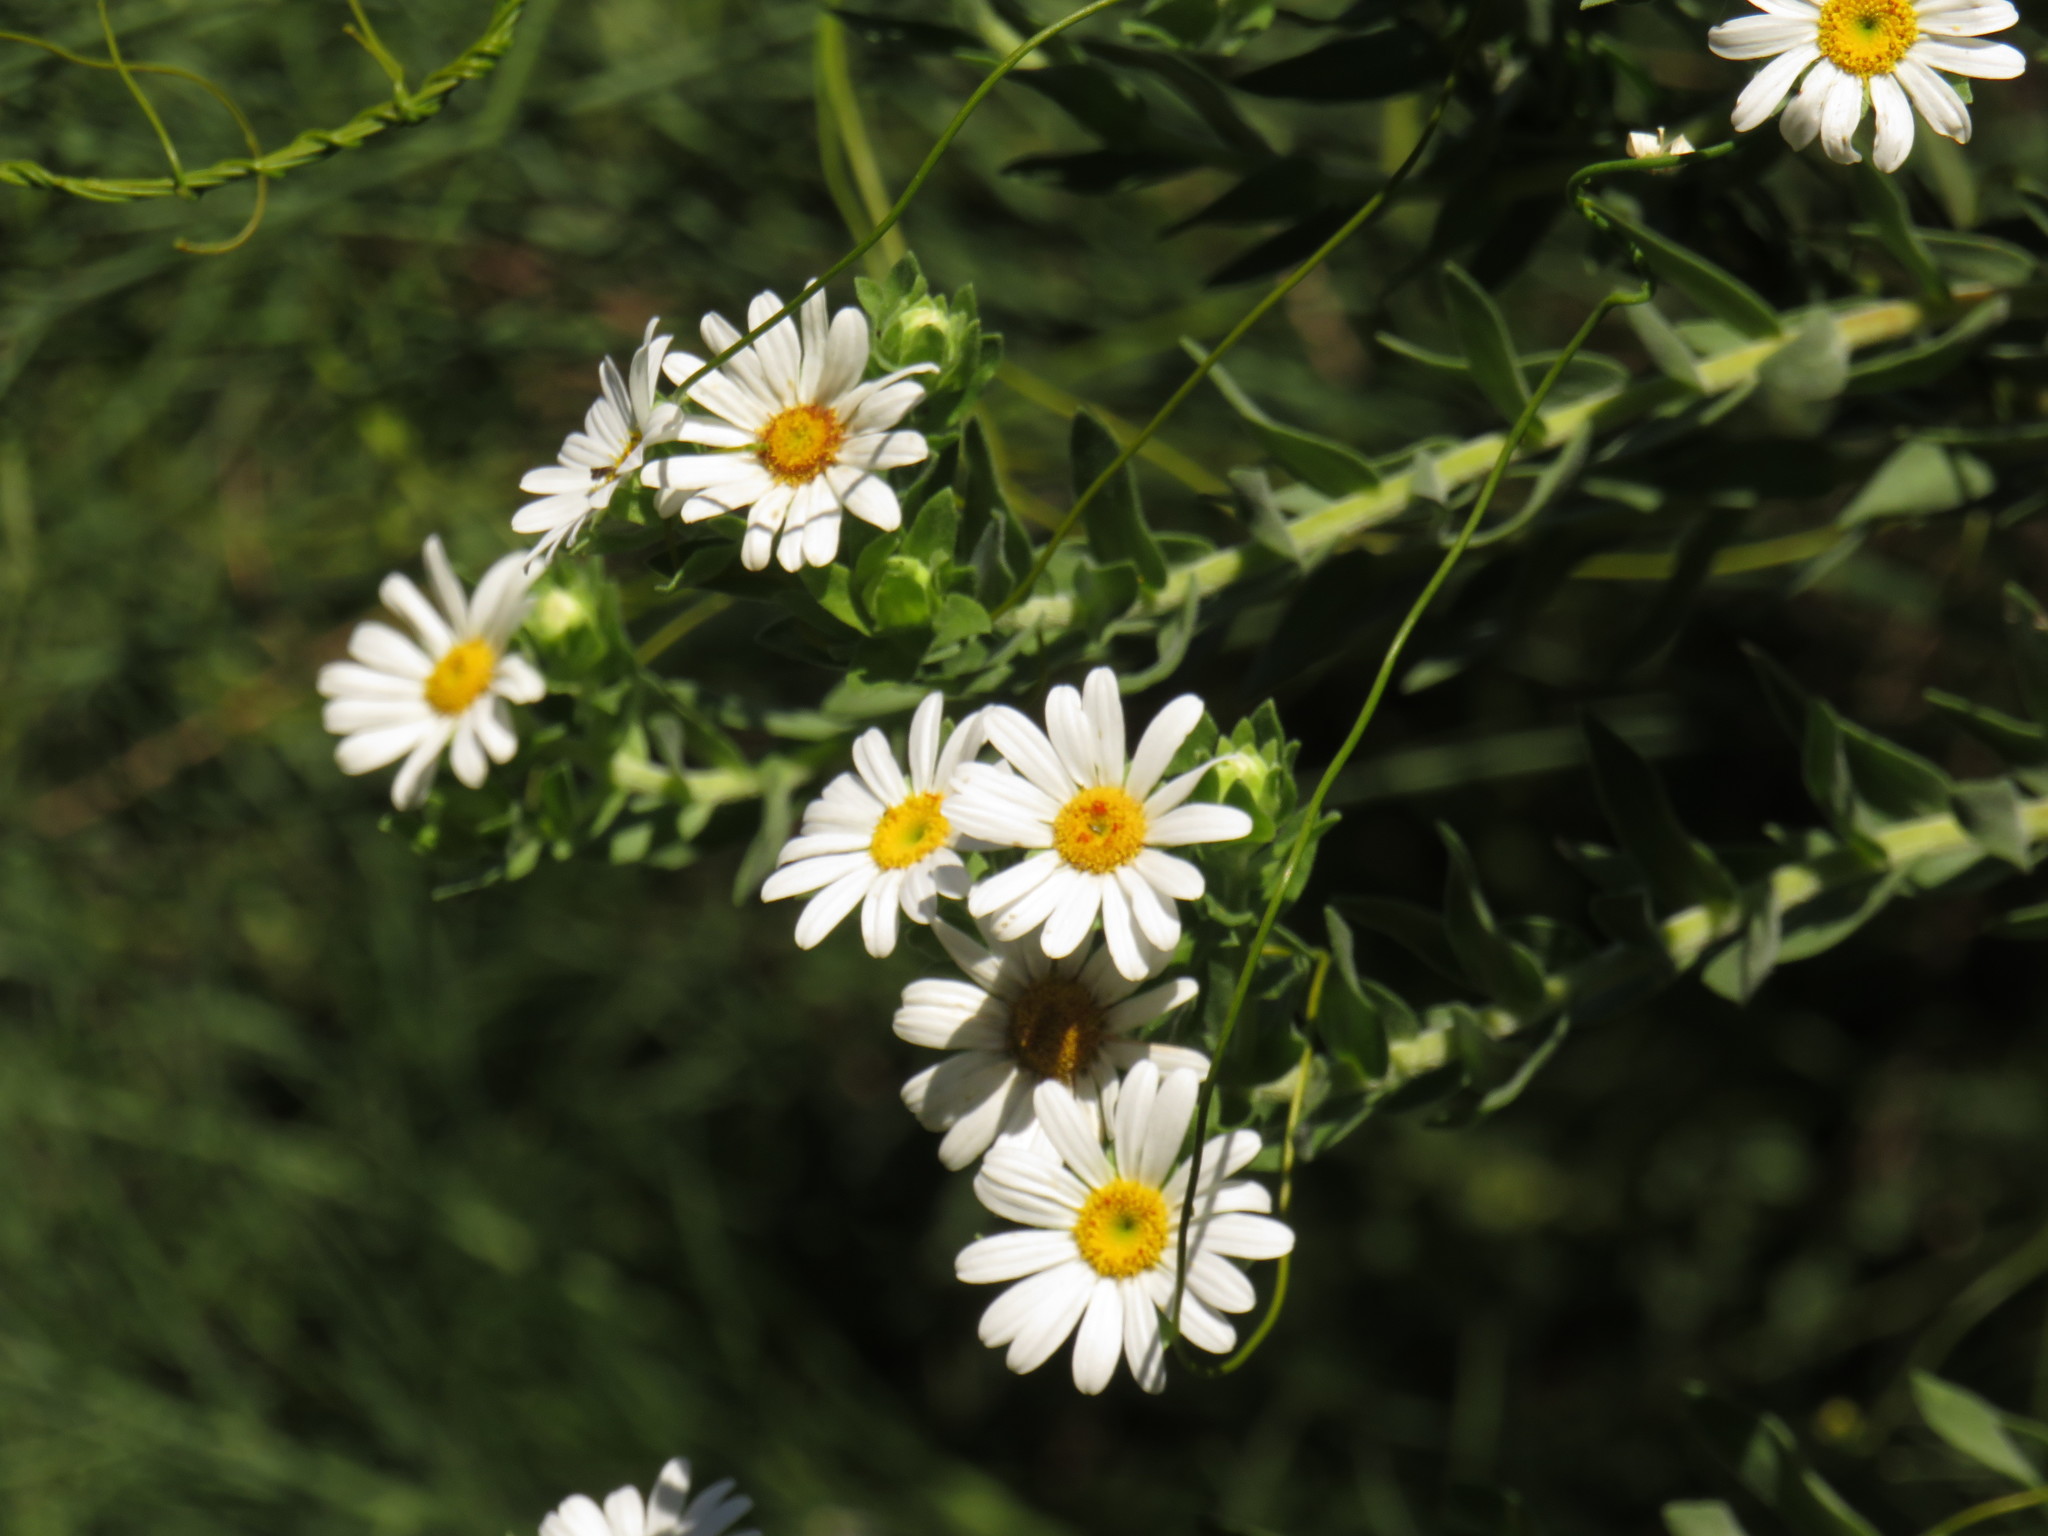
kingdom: Plantae
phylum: Tracheophyta
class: Magnoliopsida
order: Asterales
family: Asteraceae
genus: Osmitopsis
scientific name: Osmitopsis asteriscoides
